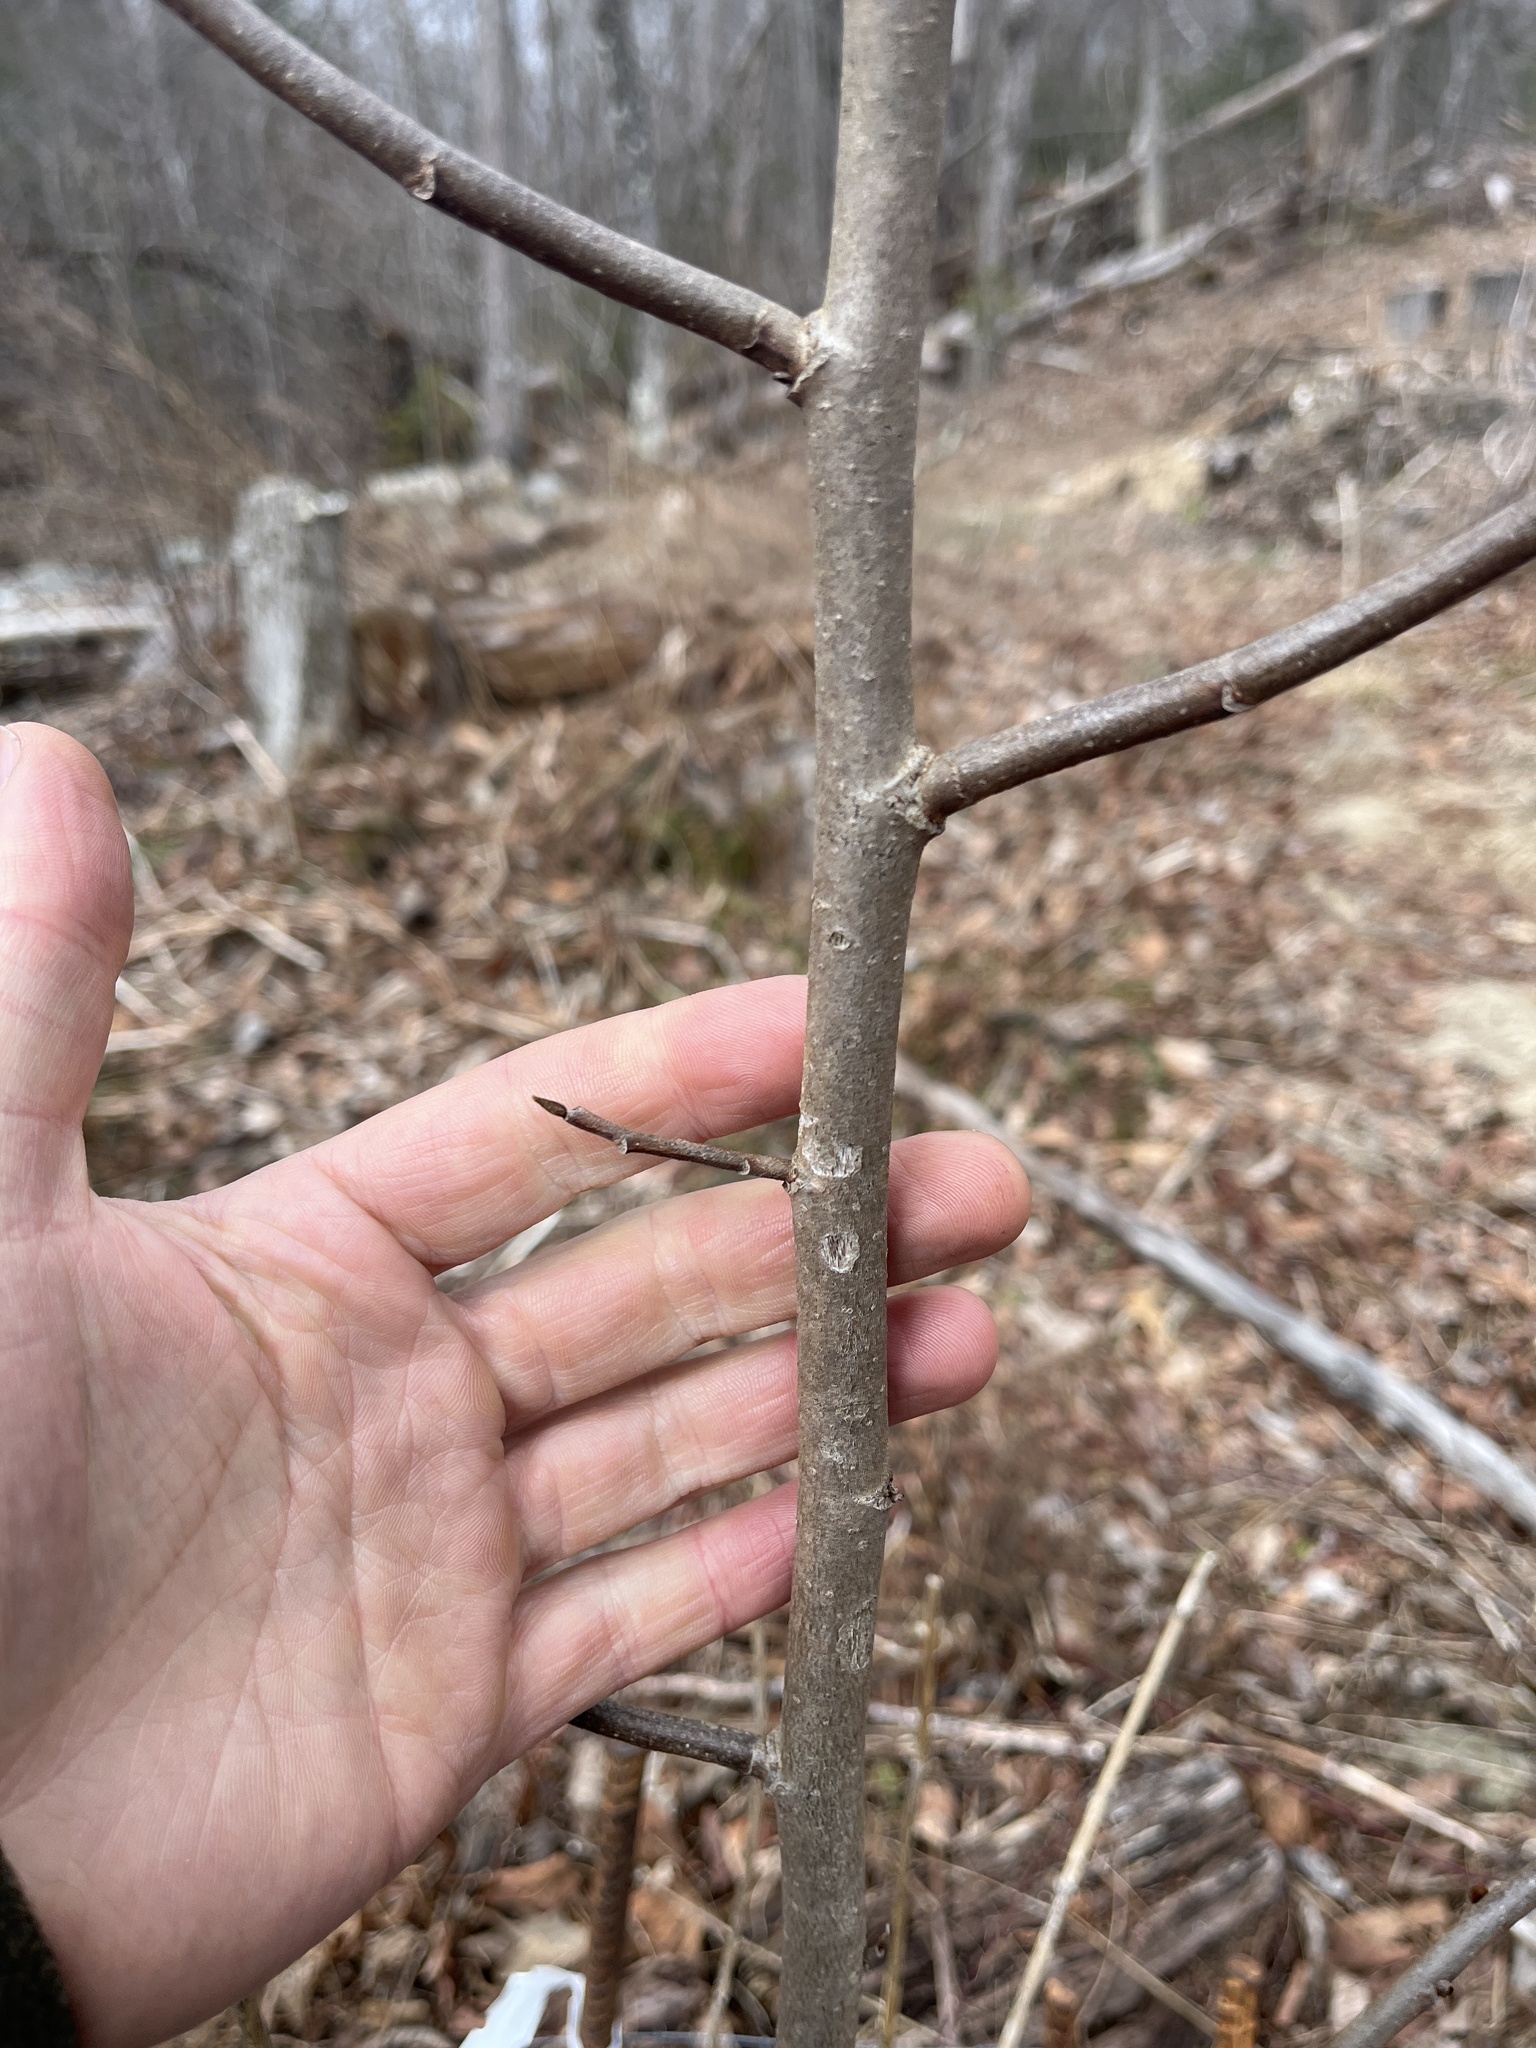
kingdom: Plantae
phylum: Tracheophyta
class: Magnoliopsida
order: Magnoliales
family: Annonaceae
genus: Asimina
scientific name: Asimina triloba
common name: Dog-banana
